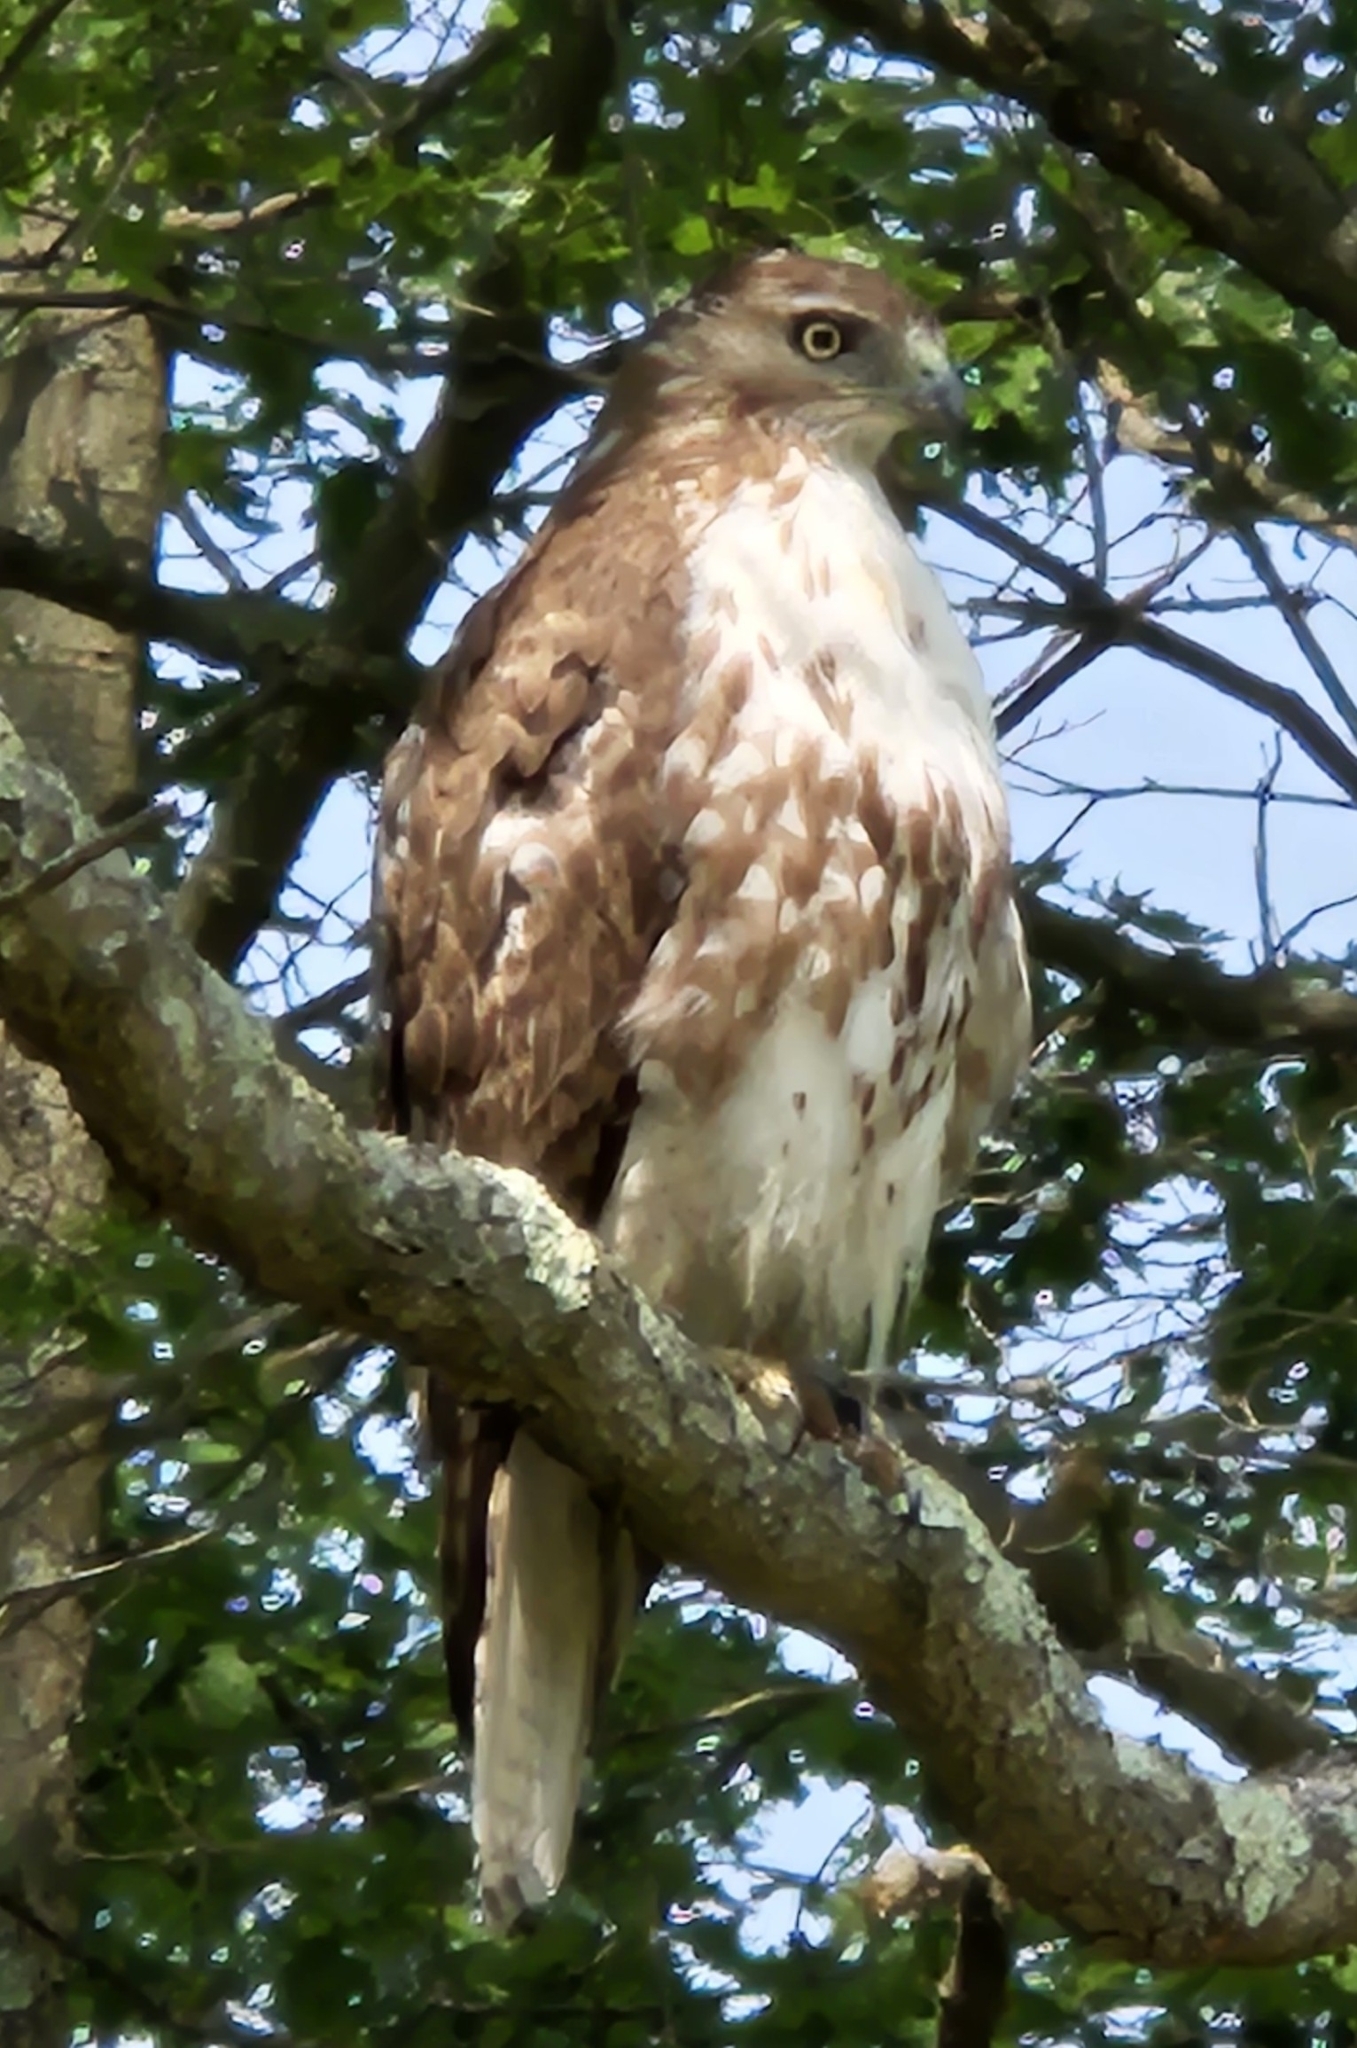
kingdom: Animalia
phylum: Chordata
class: Aves
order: Accipitriformes
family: Accipitridae
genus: Buteo
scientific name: Buteo jamaicensis
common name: Red-tailed hawk
